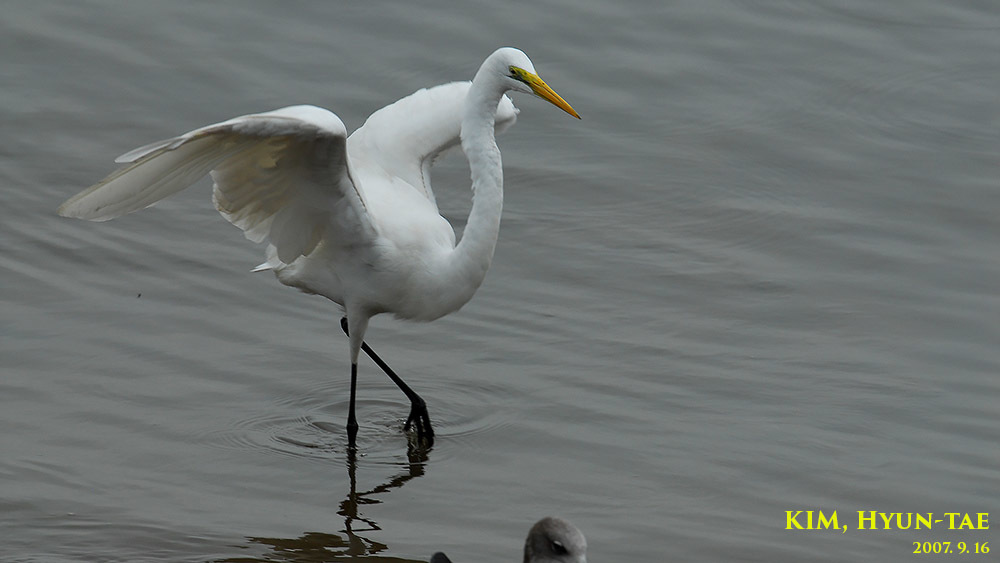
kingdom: Animalia
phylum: Chordata
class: Aves
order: Pelecaniformes
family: Ardeidae
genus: Ardea
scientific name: Ardea alba
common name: Great egret
